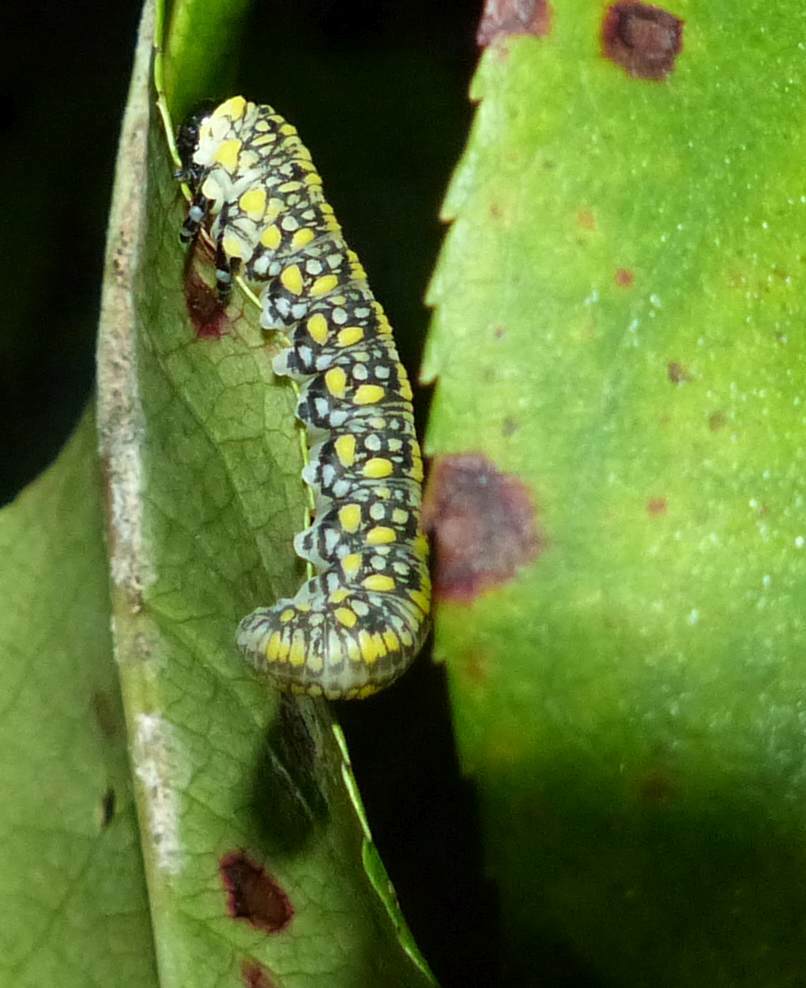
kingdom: Animalia
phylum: Arthropoda
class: Insecta
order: Hymenoptera
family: Diprionidae
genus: Diprion
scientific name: Diprion similis
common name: Pine sawfly
